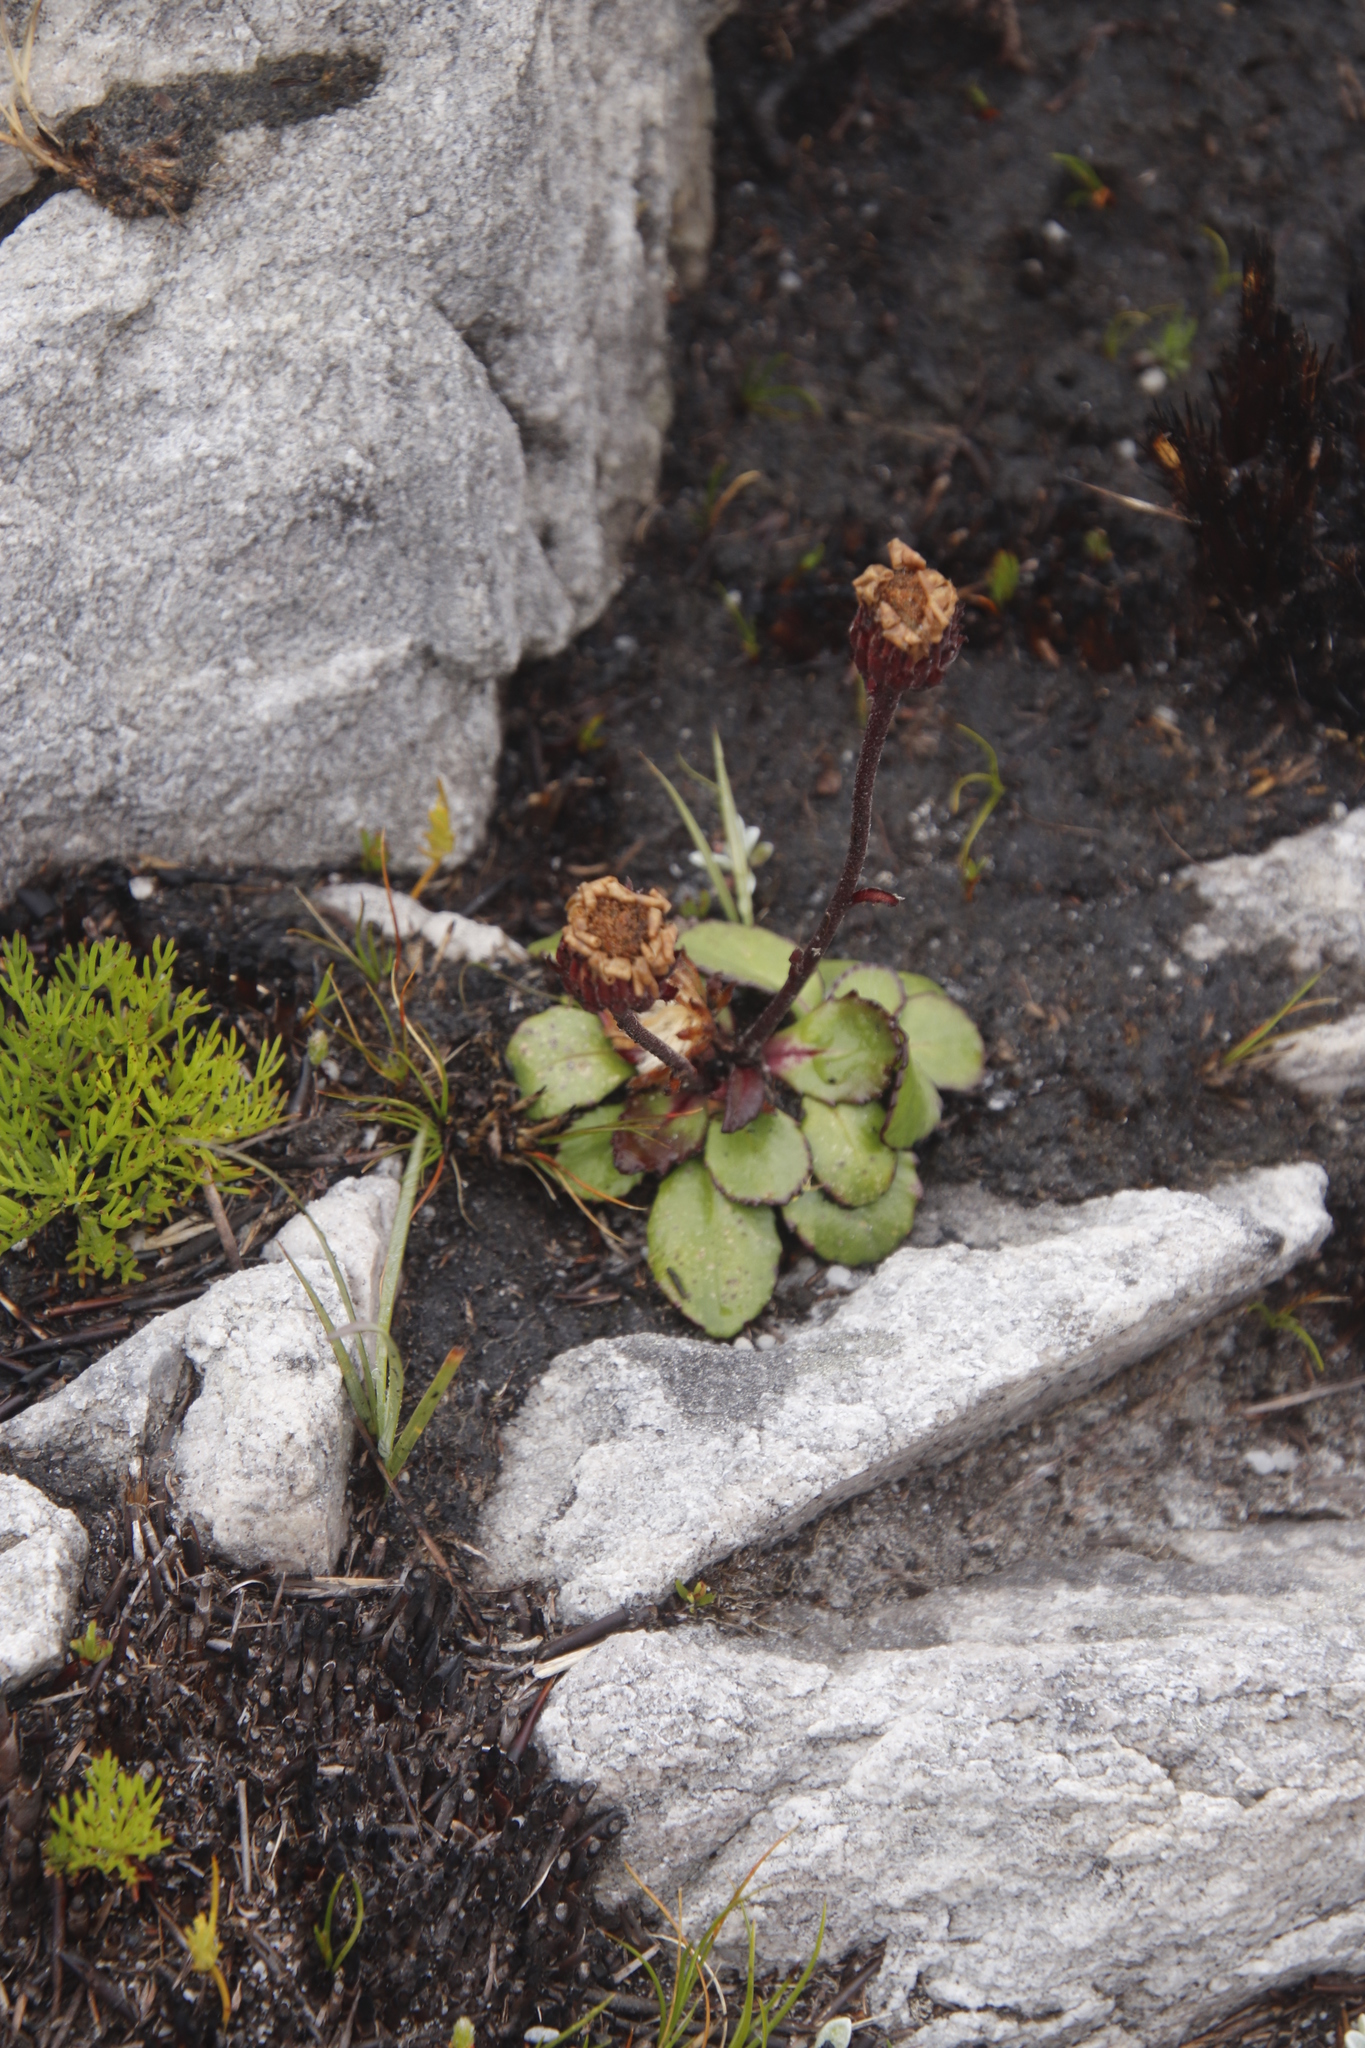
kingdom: Plantae
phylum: Tracheophyta
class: Magnoliopsida
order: Asterales
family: Asteraceae
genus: Zyrphelis
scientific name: Zyrphelis crenata
